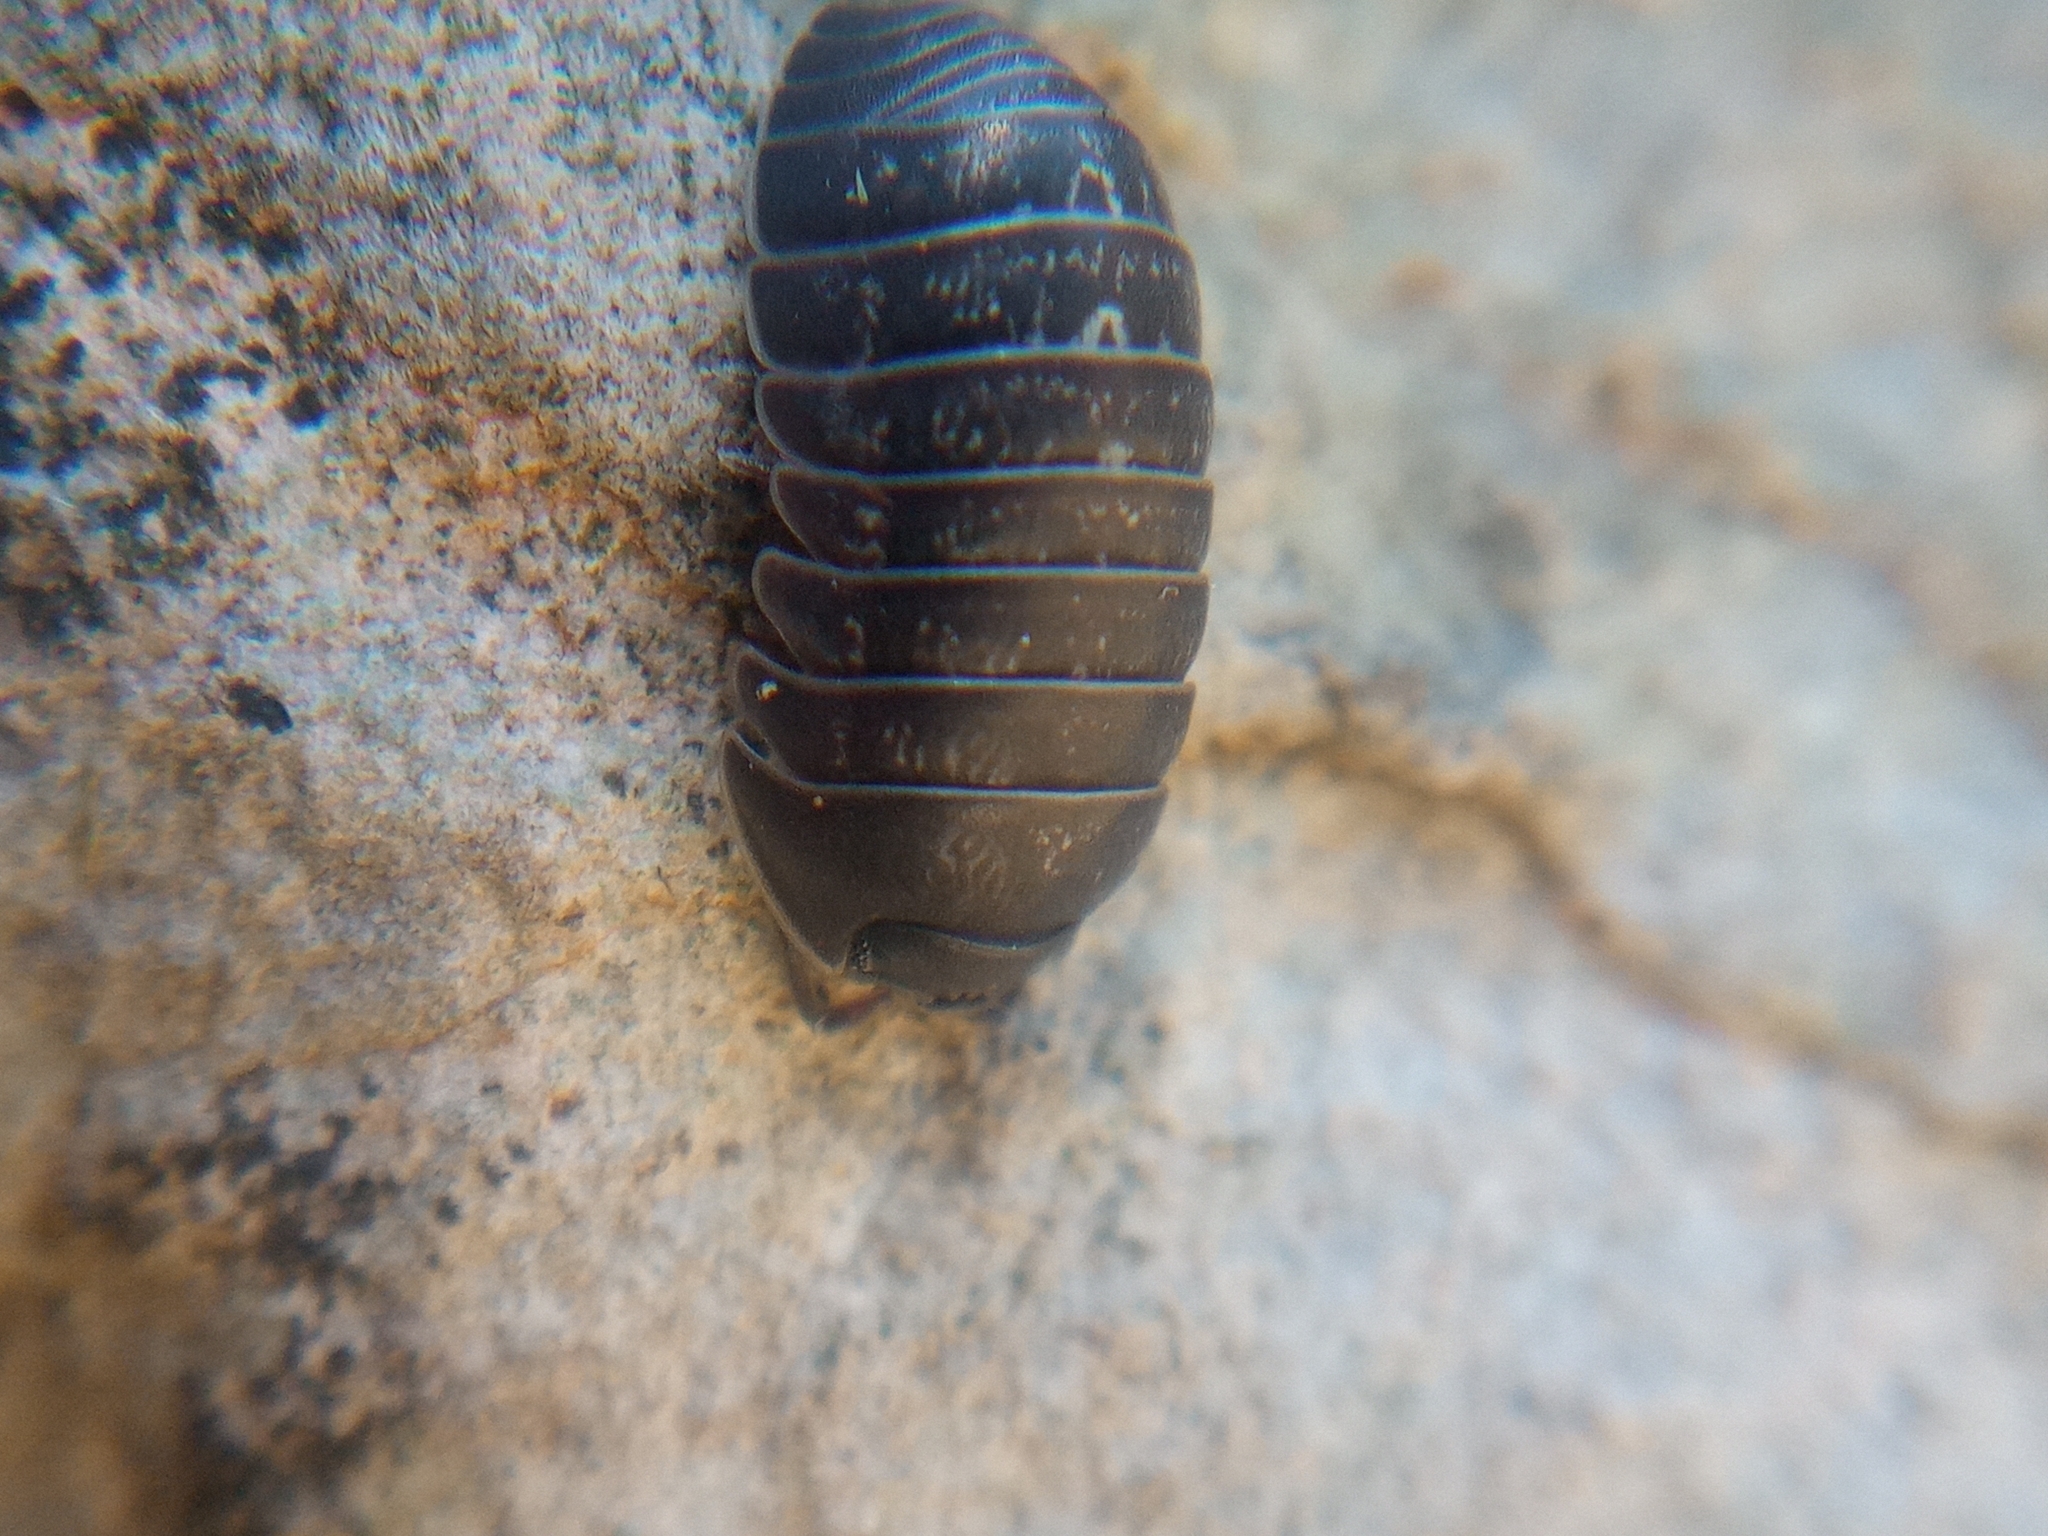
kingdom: Animalia
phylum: Arthropoda
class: Malacostraca
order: Isopoda
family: Armadillidiidae
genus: Armadillidium
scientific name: Armadillidium opacum
